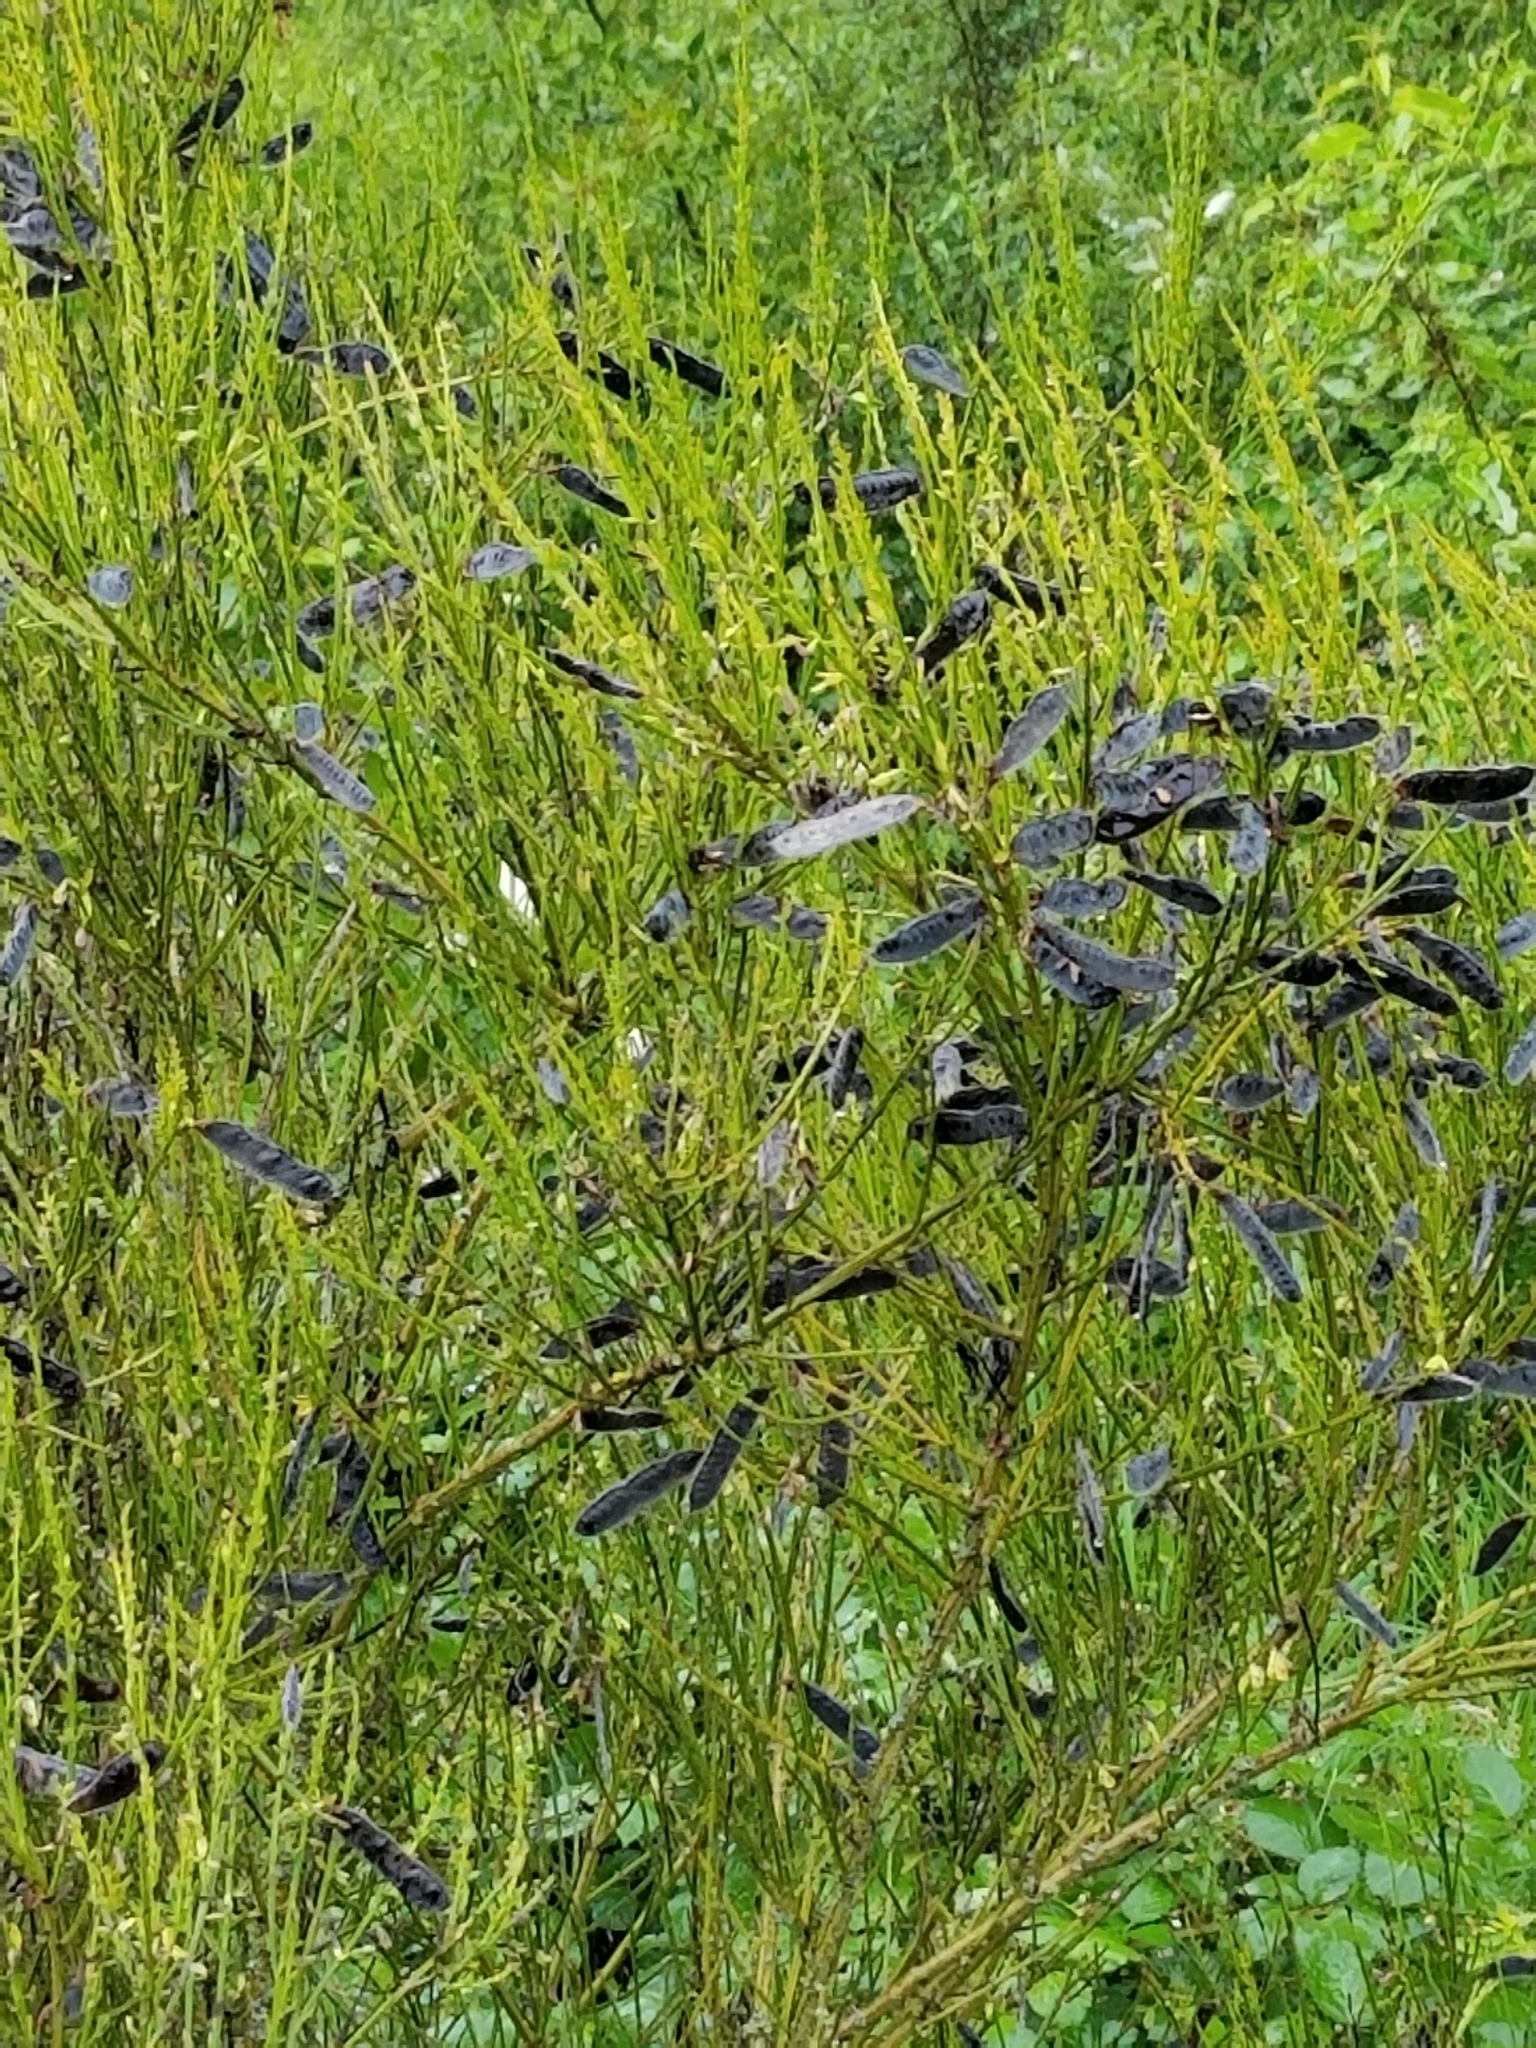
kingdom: Plantae
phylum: Tracheophyta
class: Magnoliopsida
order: Fabales
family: Fabaceae
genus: Cytisus
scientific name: Cytisus scoparius
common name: Scotch broom
